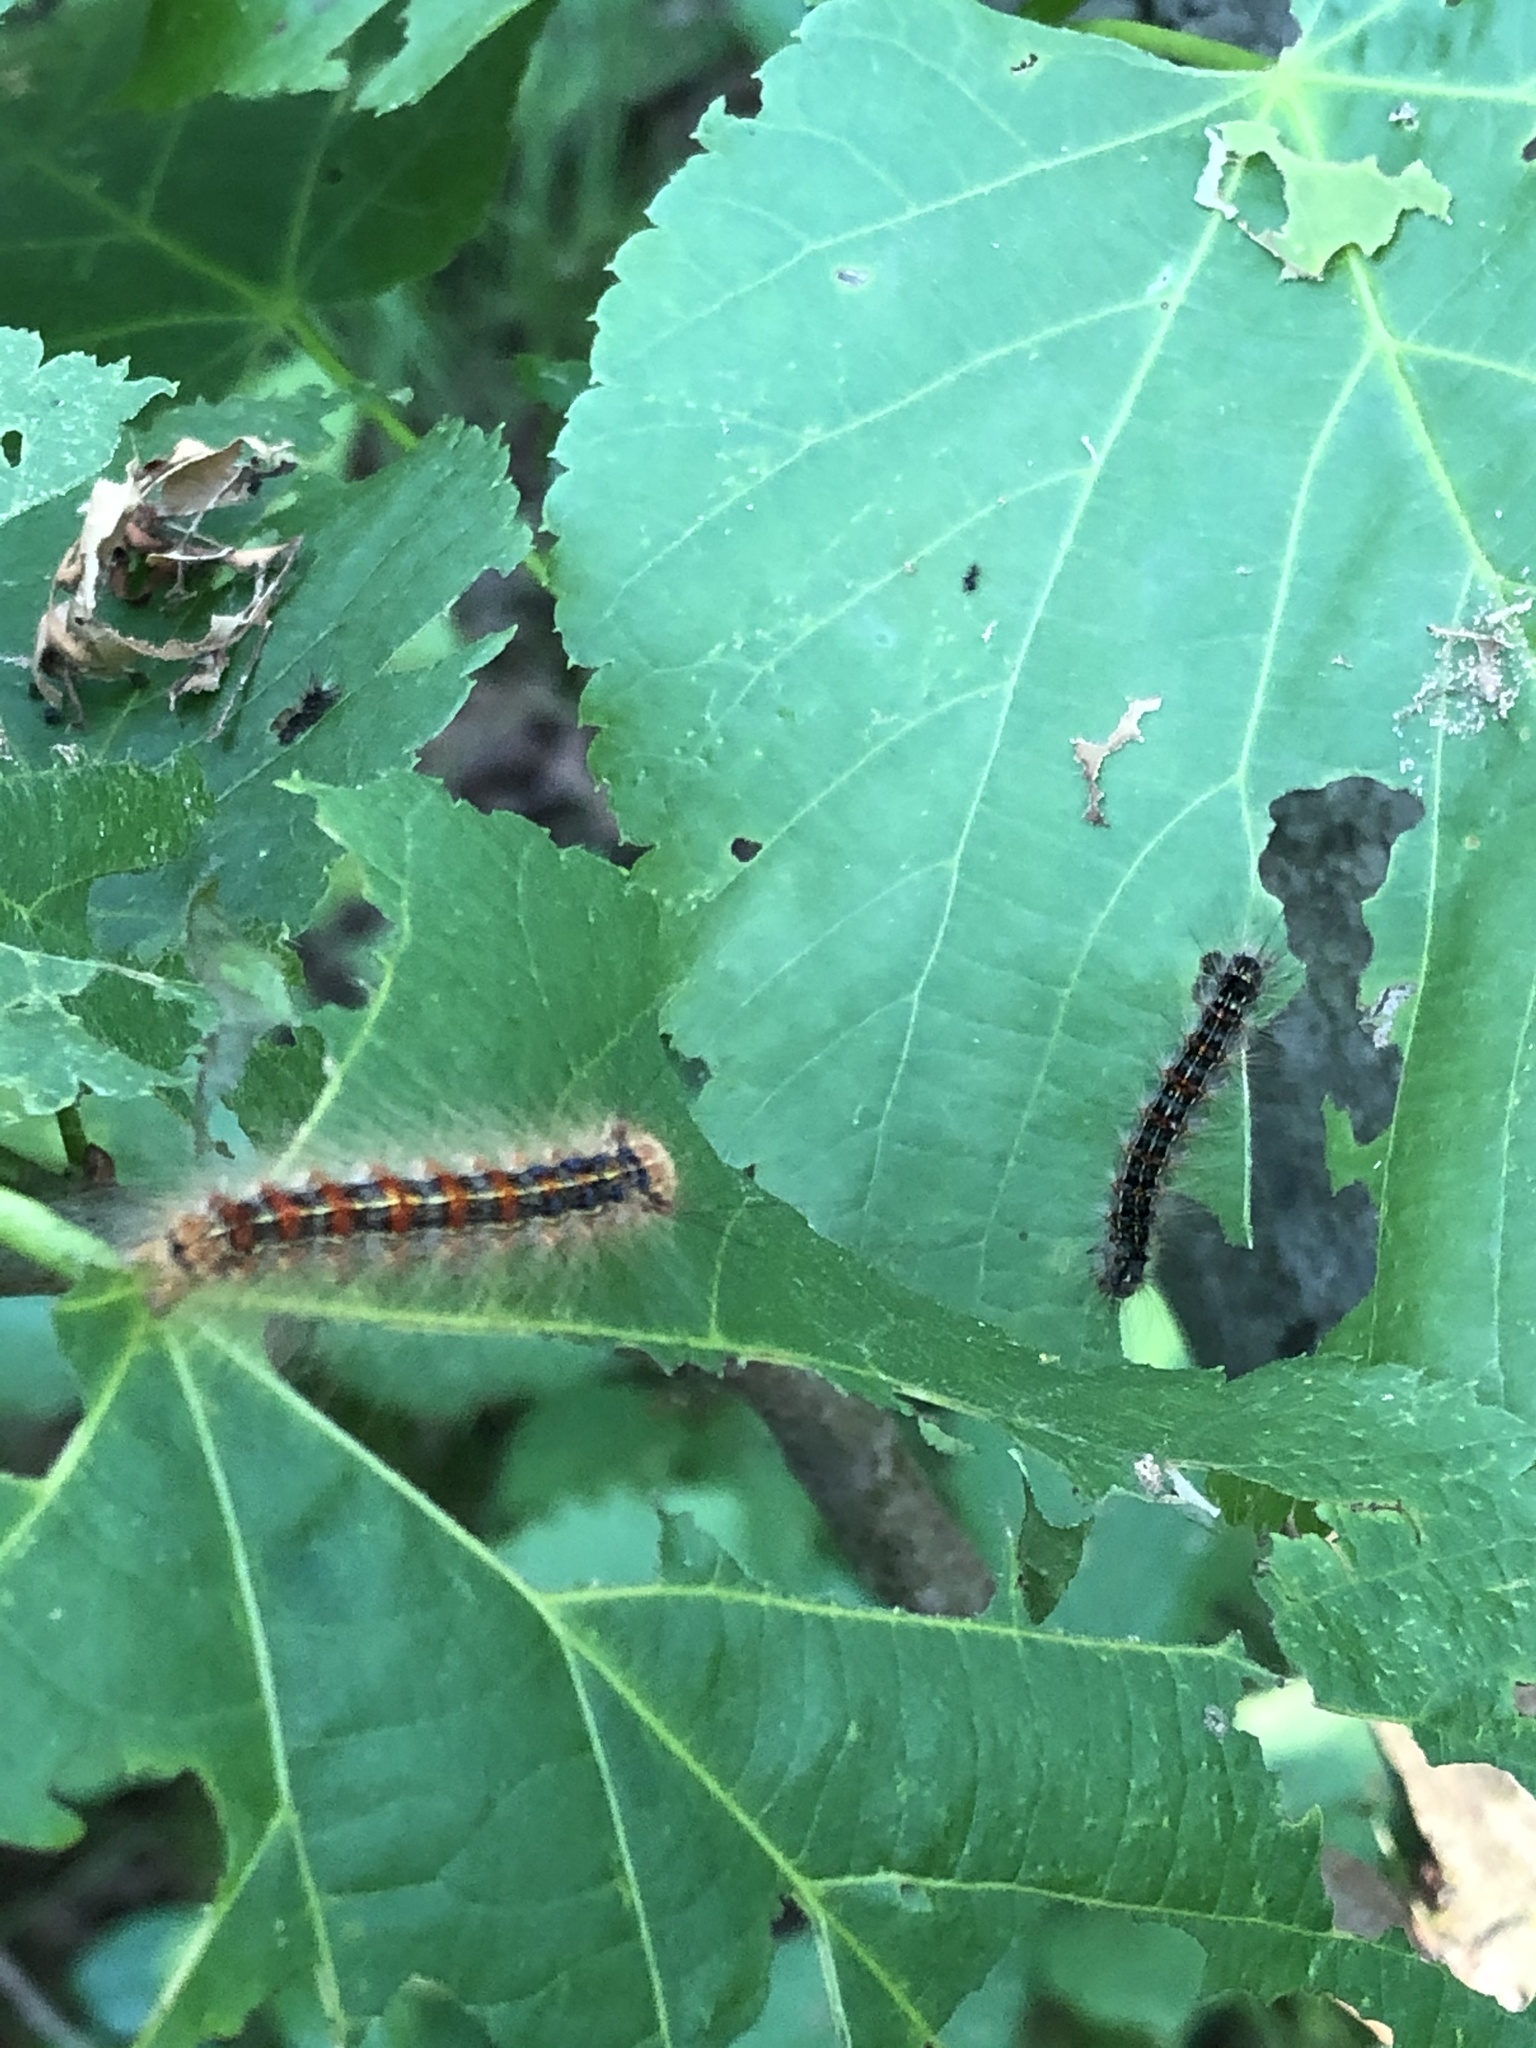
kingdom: Animalia
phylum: Arthropoda
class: Insecta
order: Lepidoptera
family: Erebidae
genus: Lymantria
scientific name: Lymantria dispar
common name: Gypsy moth
